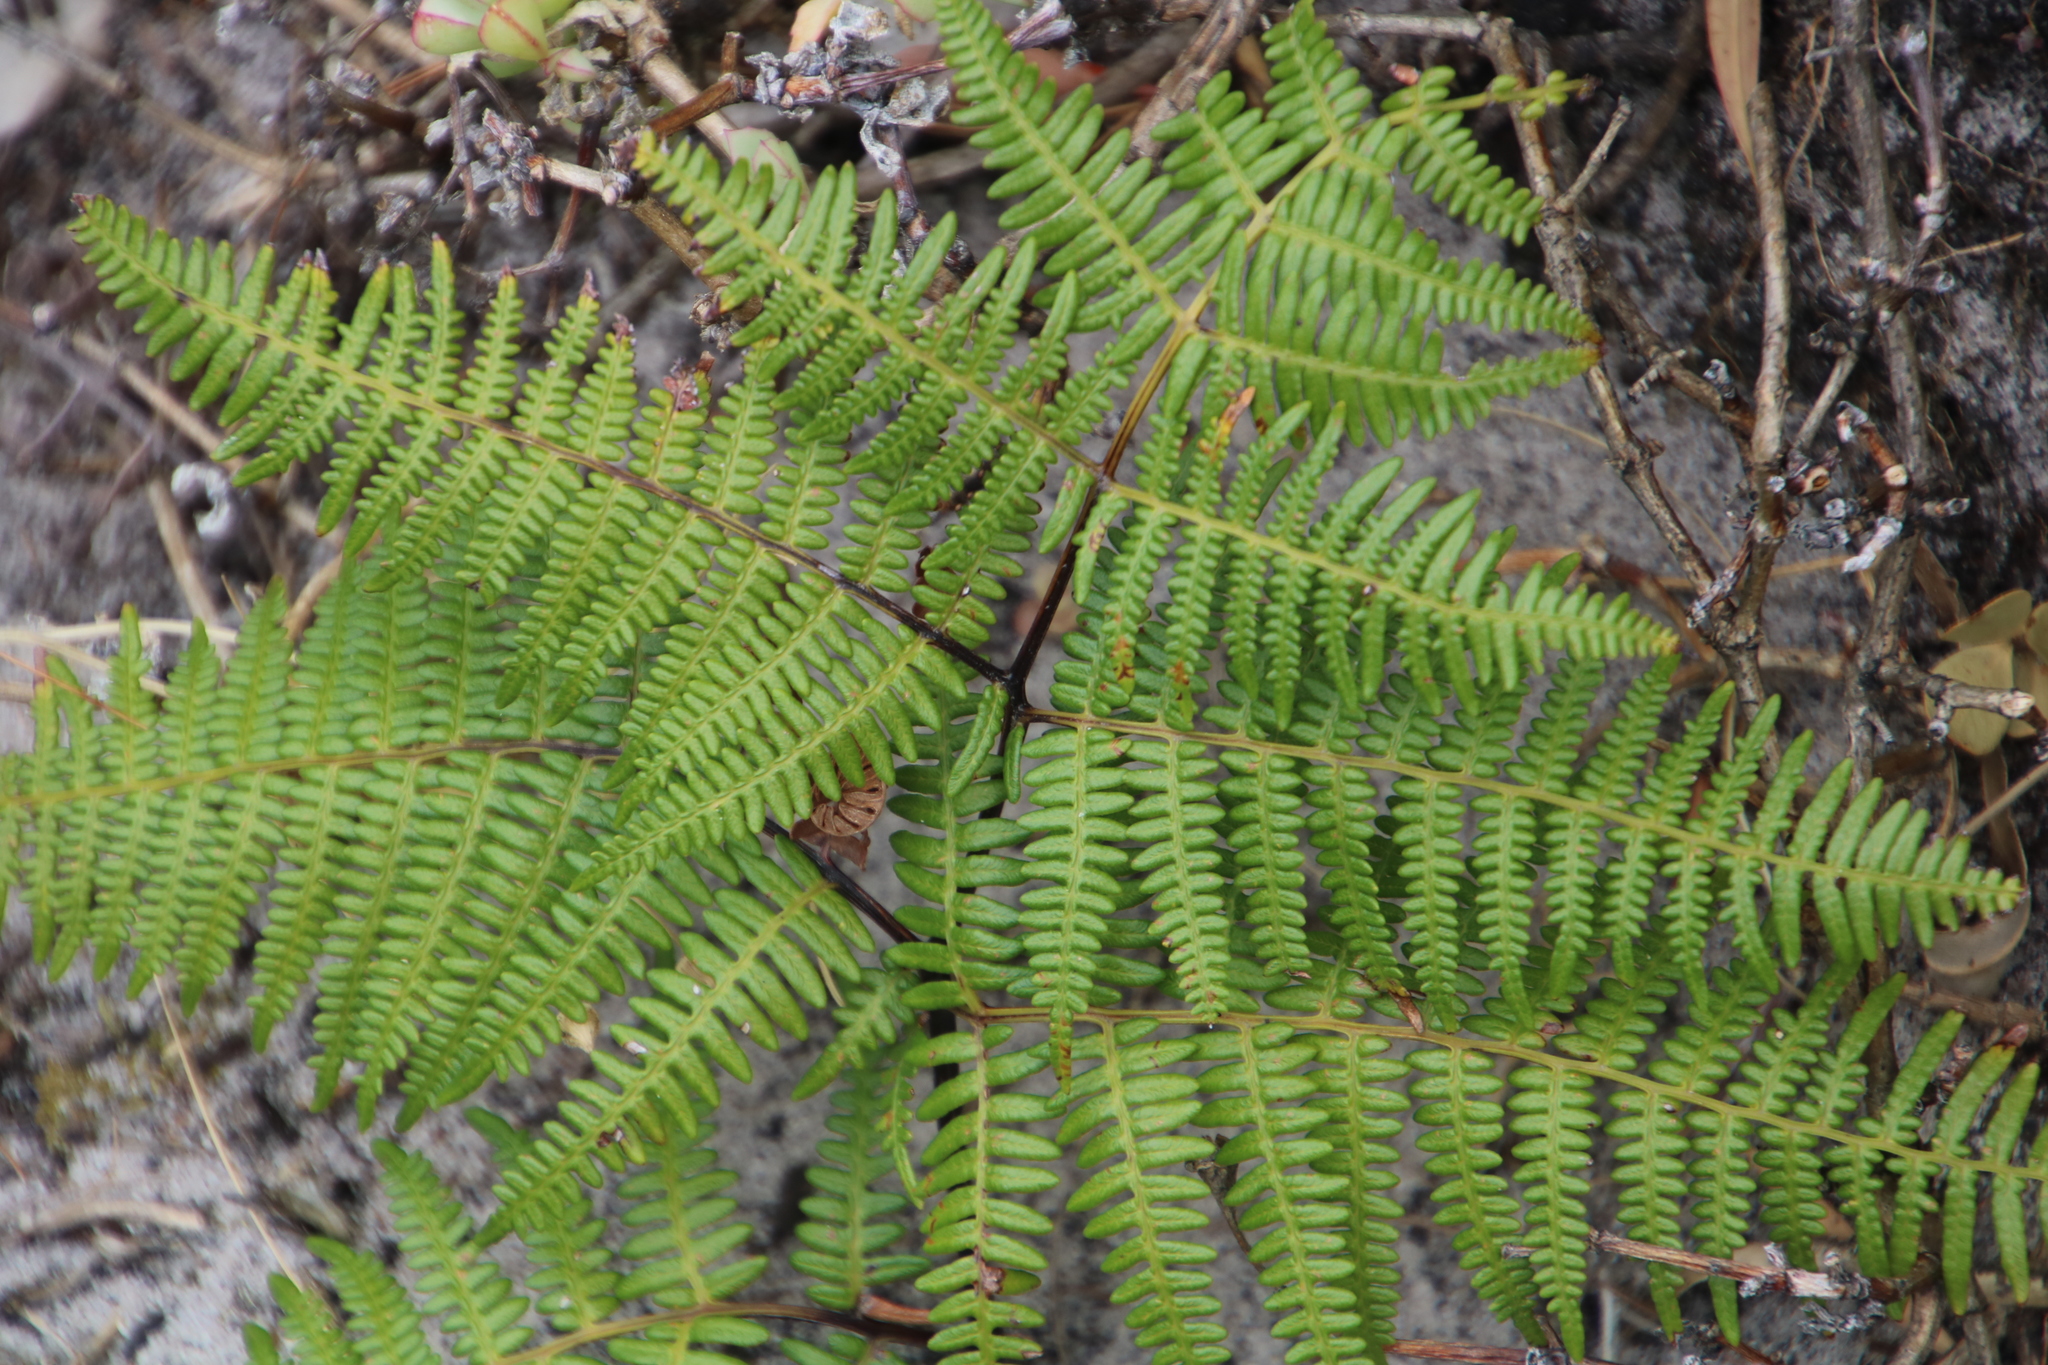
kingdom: Plantae
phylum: Tracheophyta
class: Polypodiopsida
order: Polypodiales
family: Dennstaedtiaceae
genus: Pteridium
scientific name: Pteridium aquilinum
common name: Bracken
